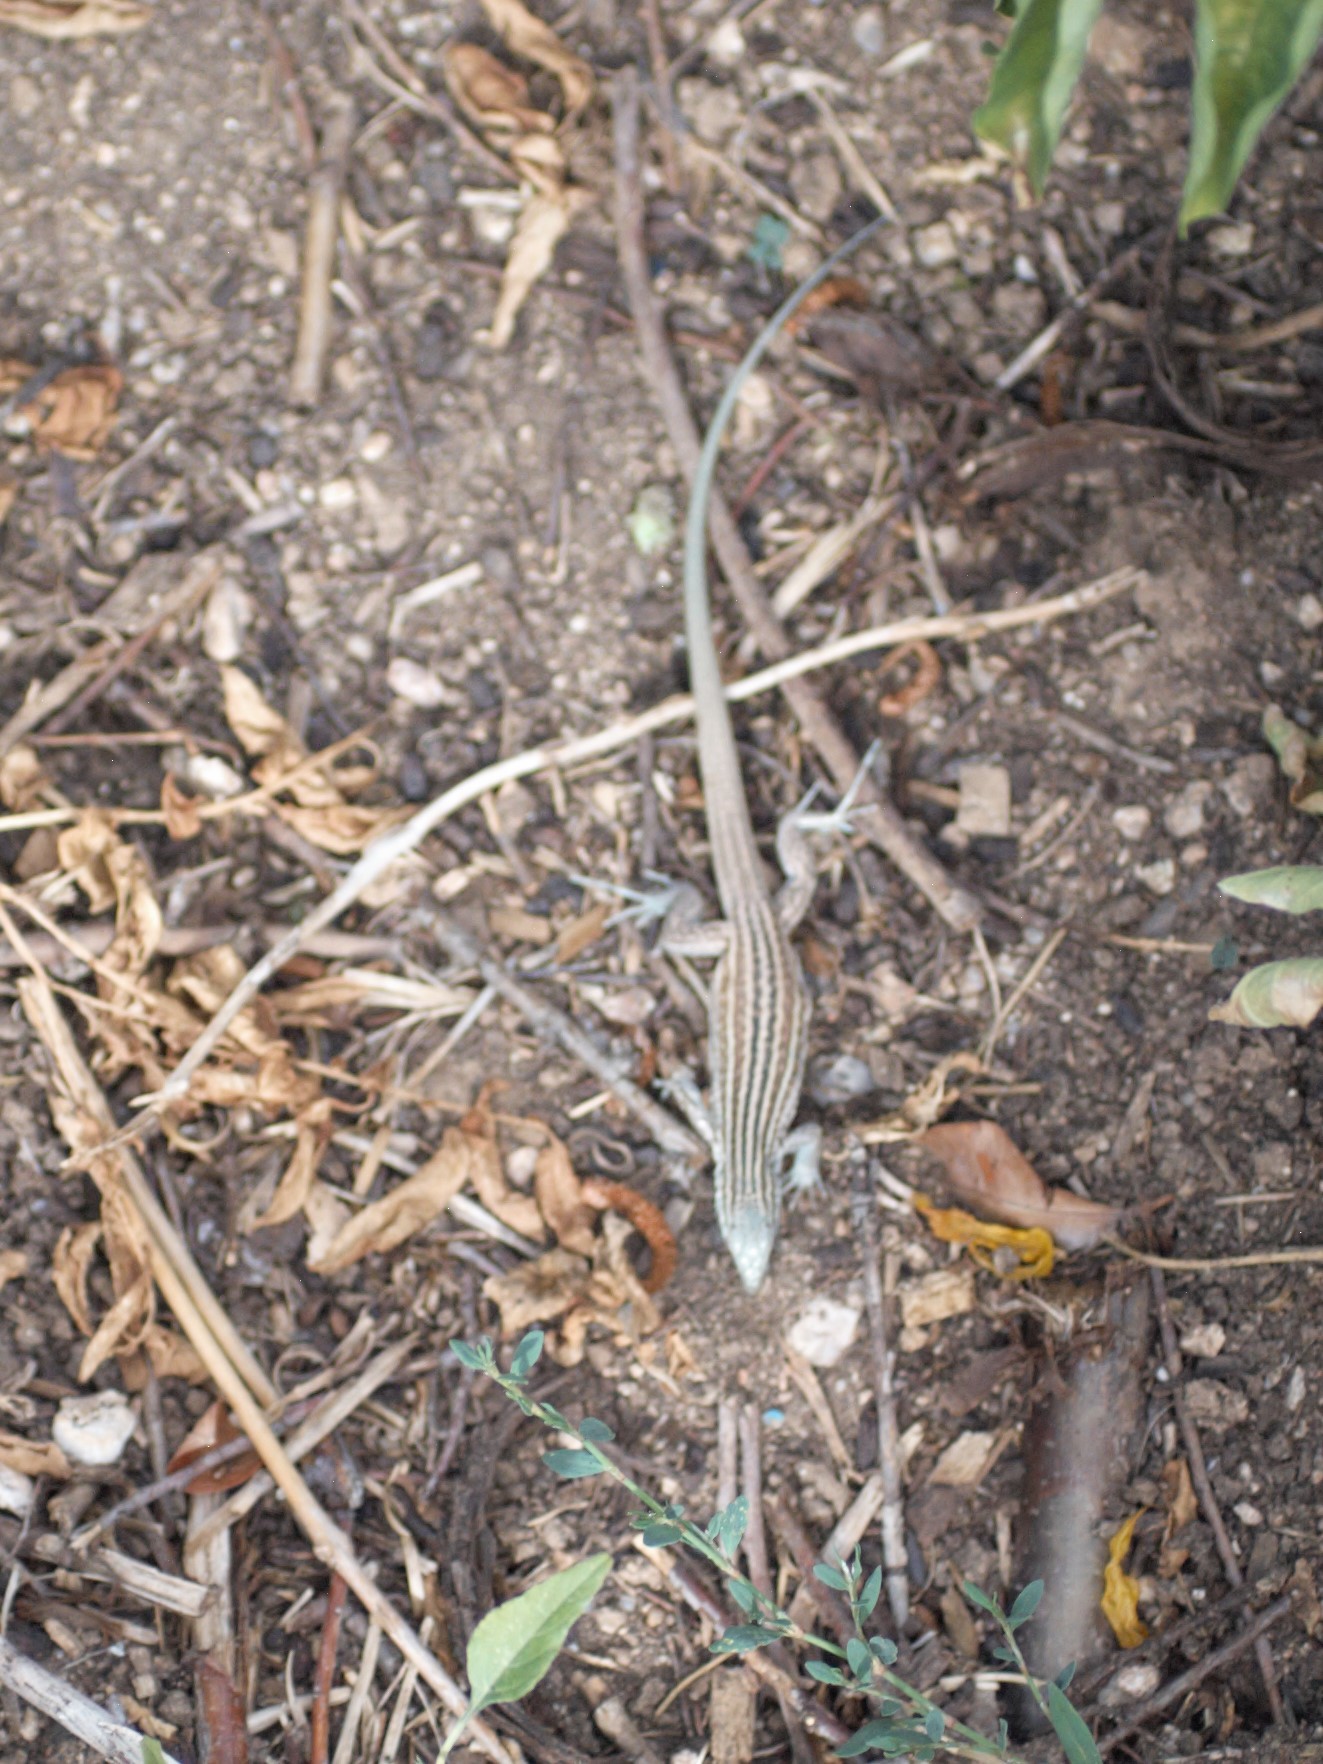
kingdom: Animalia
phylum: Chordata
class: Squamata
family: Teiidae
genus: Aspidoscelis
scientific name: Aspidoscelis neomexicanus
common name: New mexico whiptail
